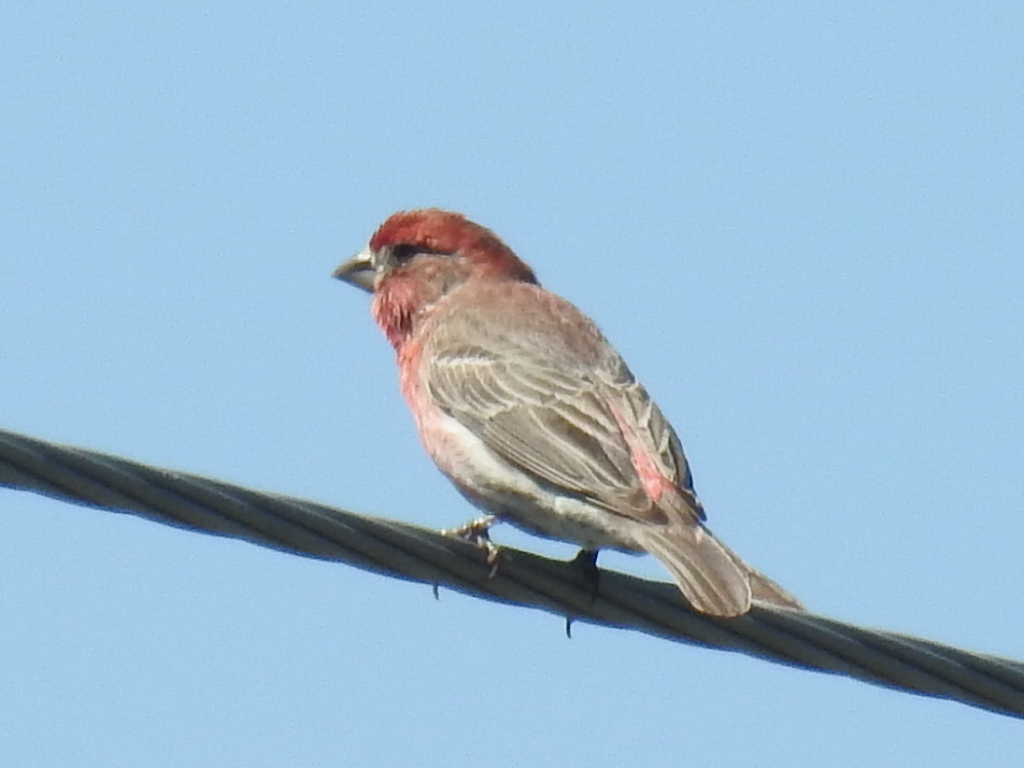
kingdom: Animalia
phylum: Chordata
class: Aves
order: Passeriformes
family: Fringillidae
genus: Haemorhous
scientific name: Haemorhous mexicanus
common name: House finch
